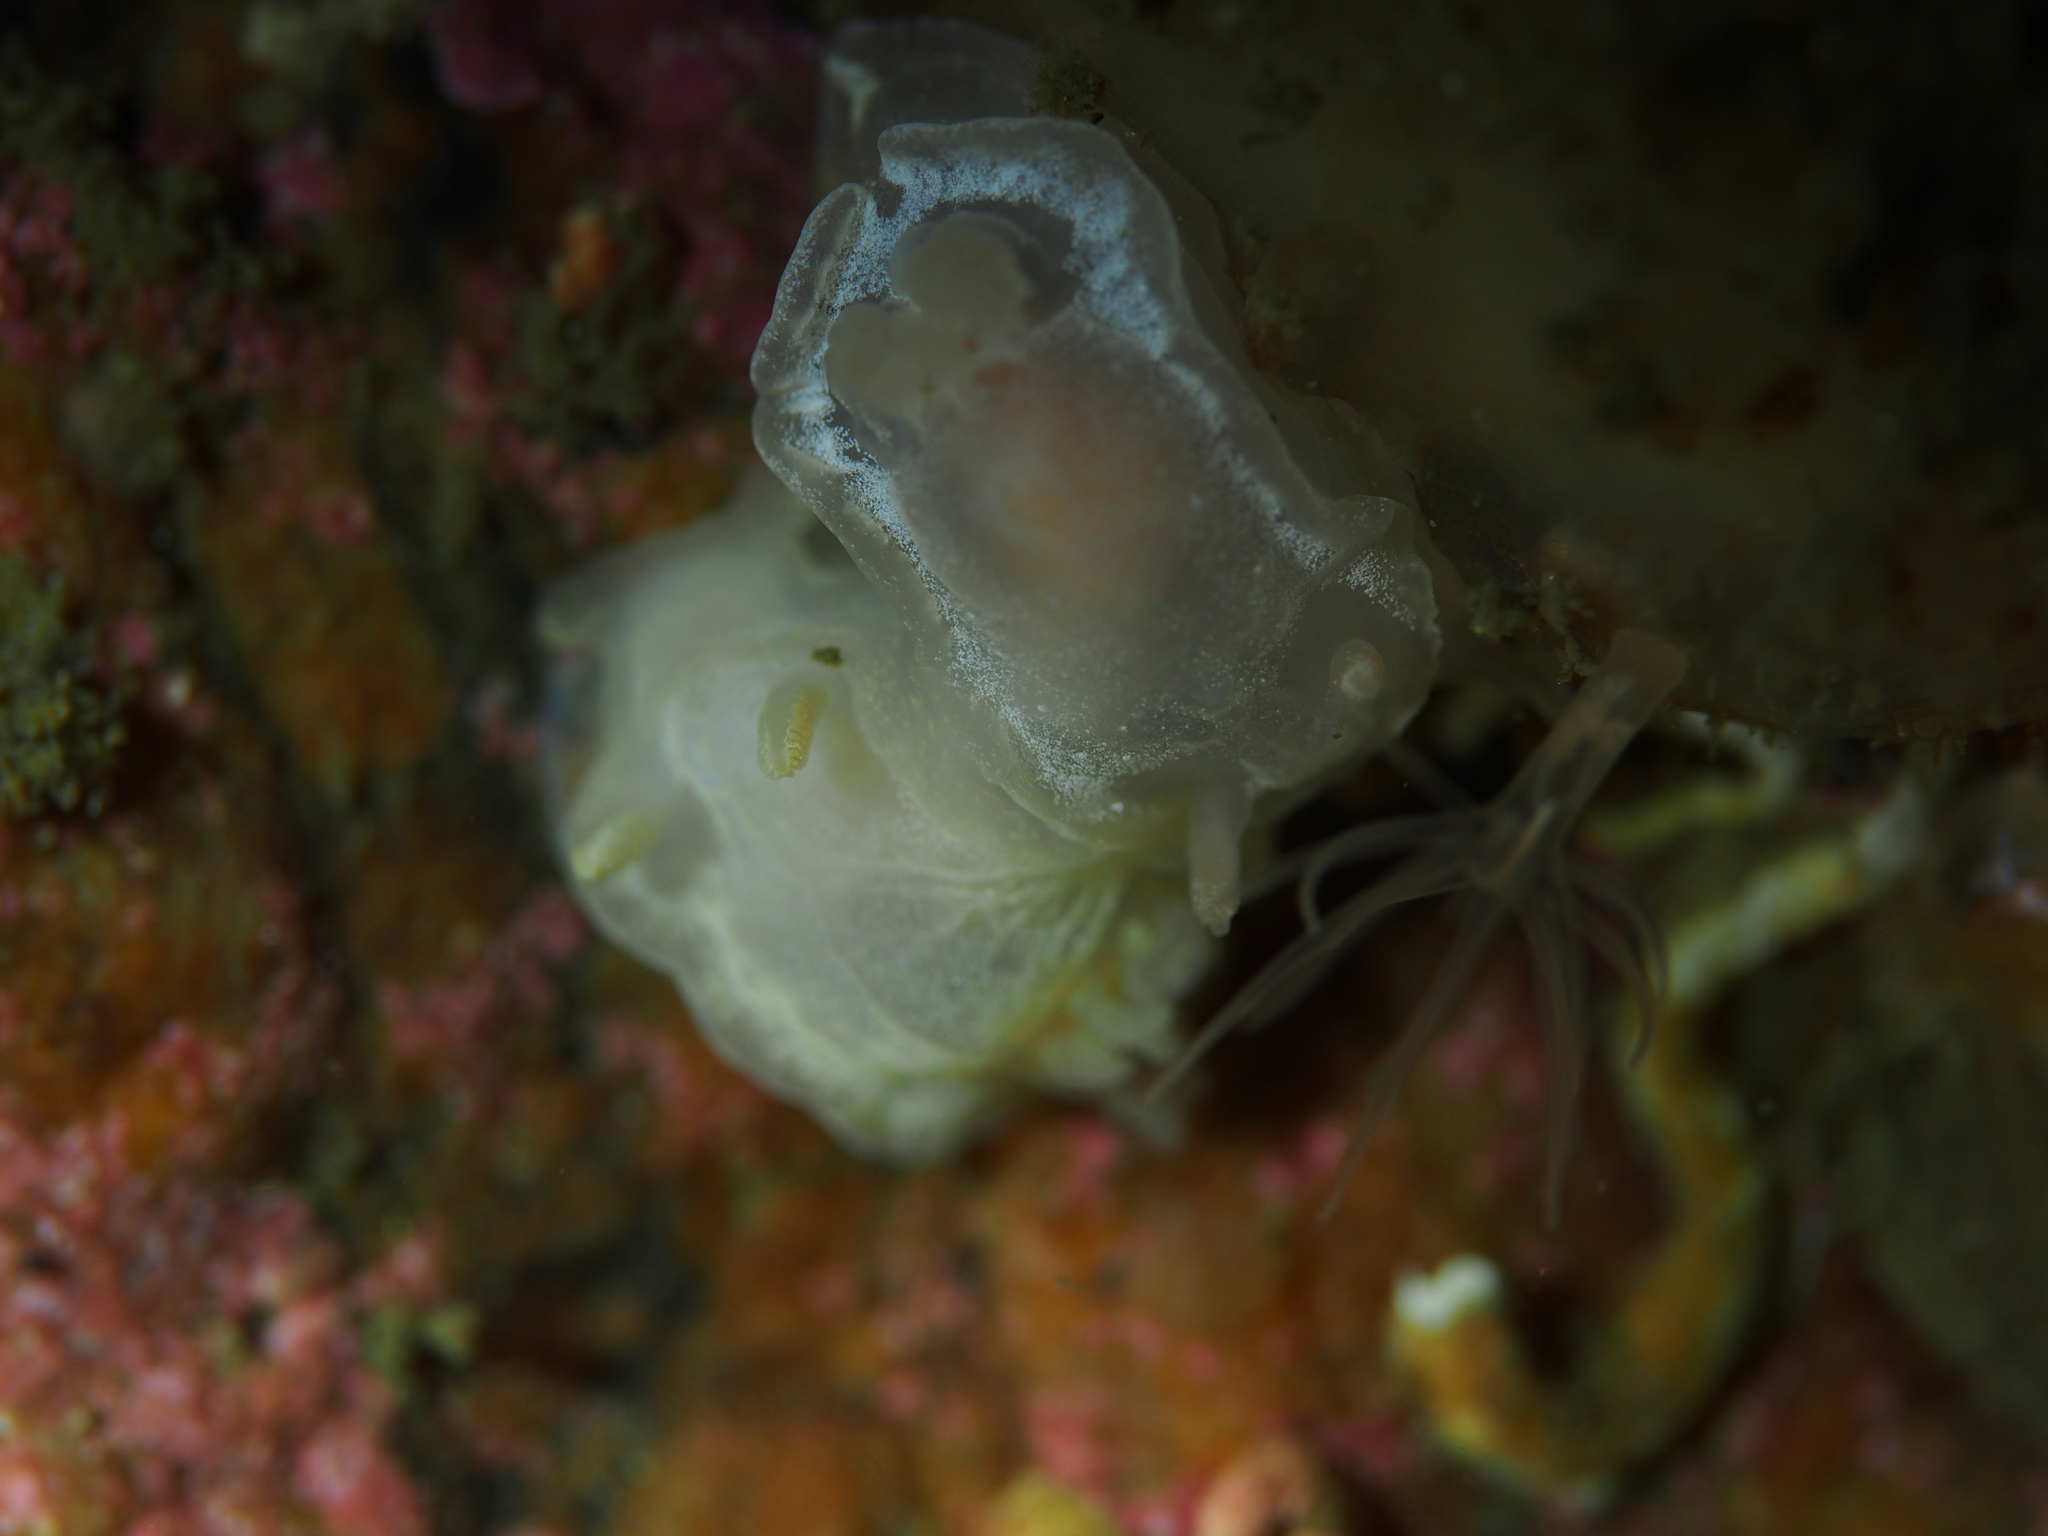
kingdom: Animalia
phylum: Mollusca
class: Gastropoda
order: Nudibranchia
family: Goniodorididae
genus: Okenia
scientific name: Okenia
